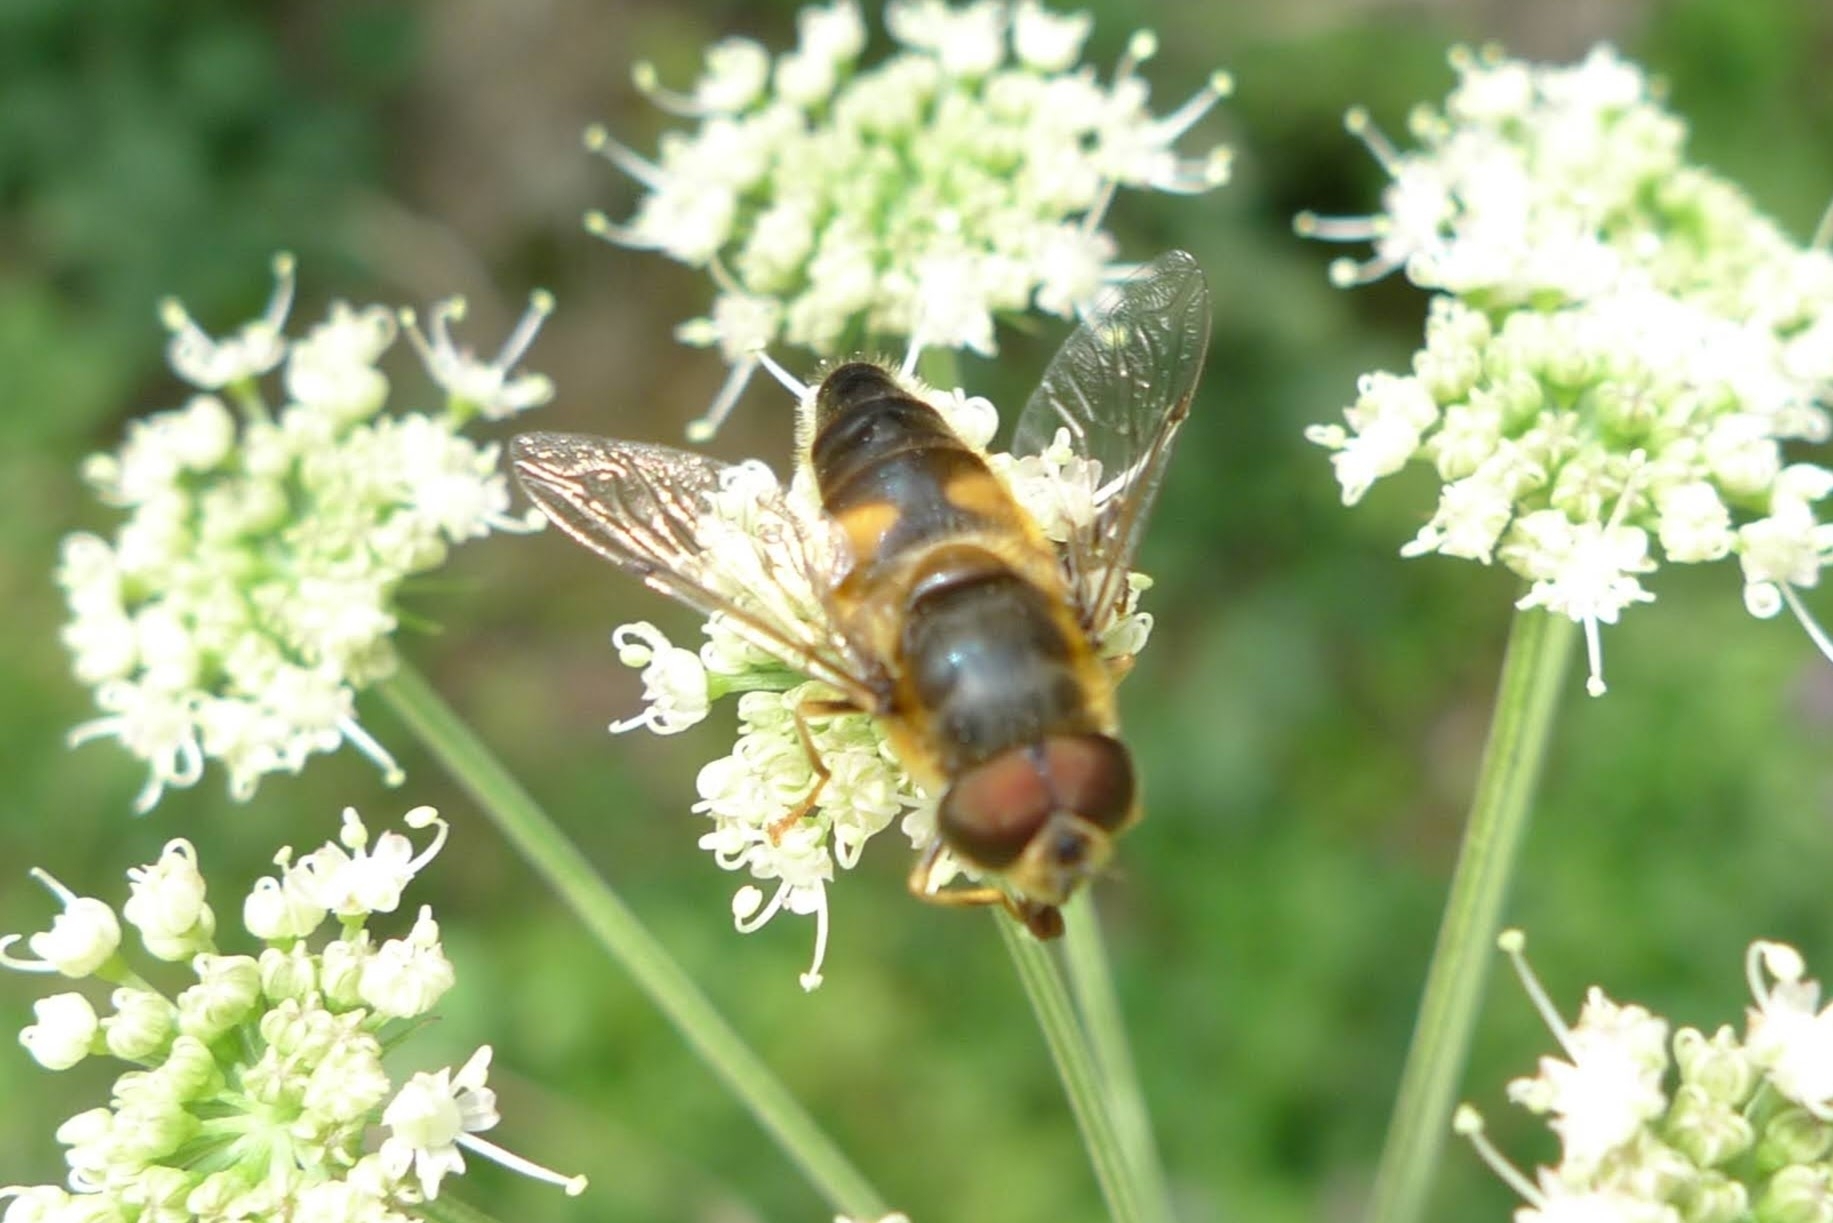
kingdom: Animalia
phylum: Arthropoda
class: Insecta
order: Diptera
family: Syrphidae
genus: Eristalis
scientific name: Eristalis pertinax
